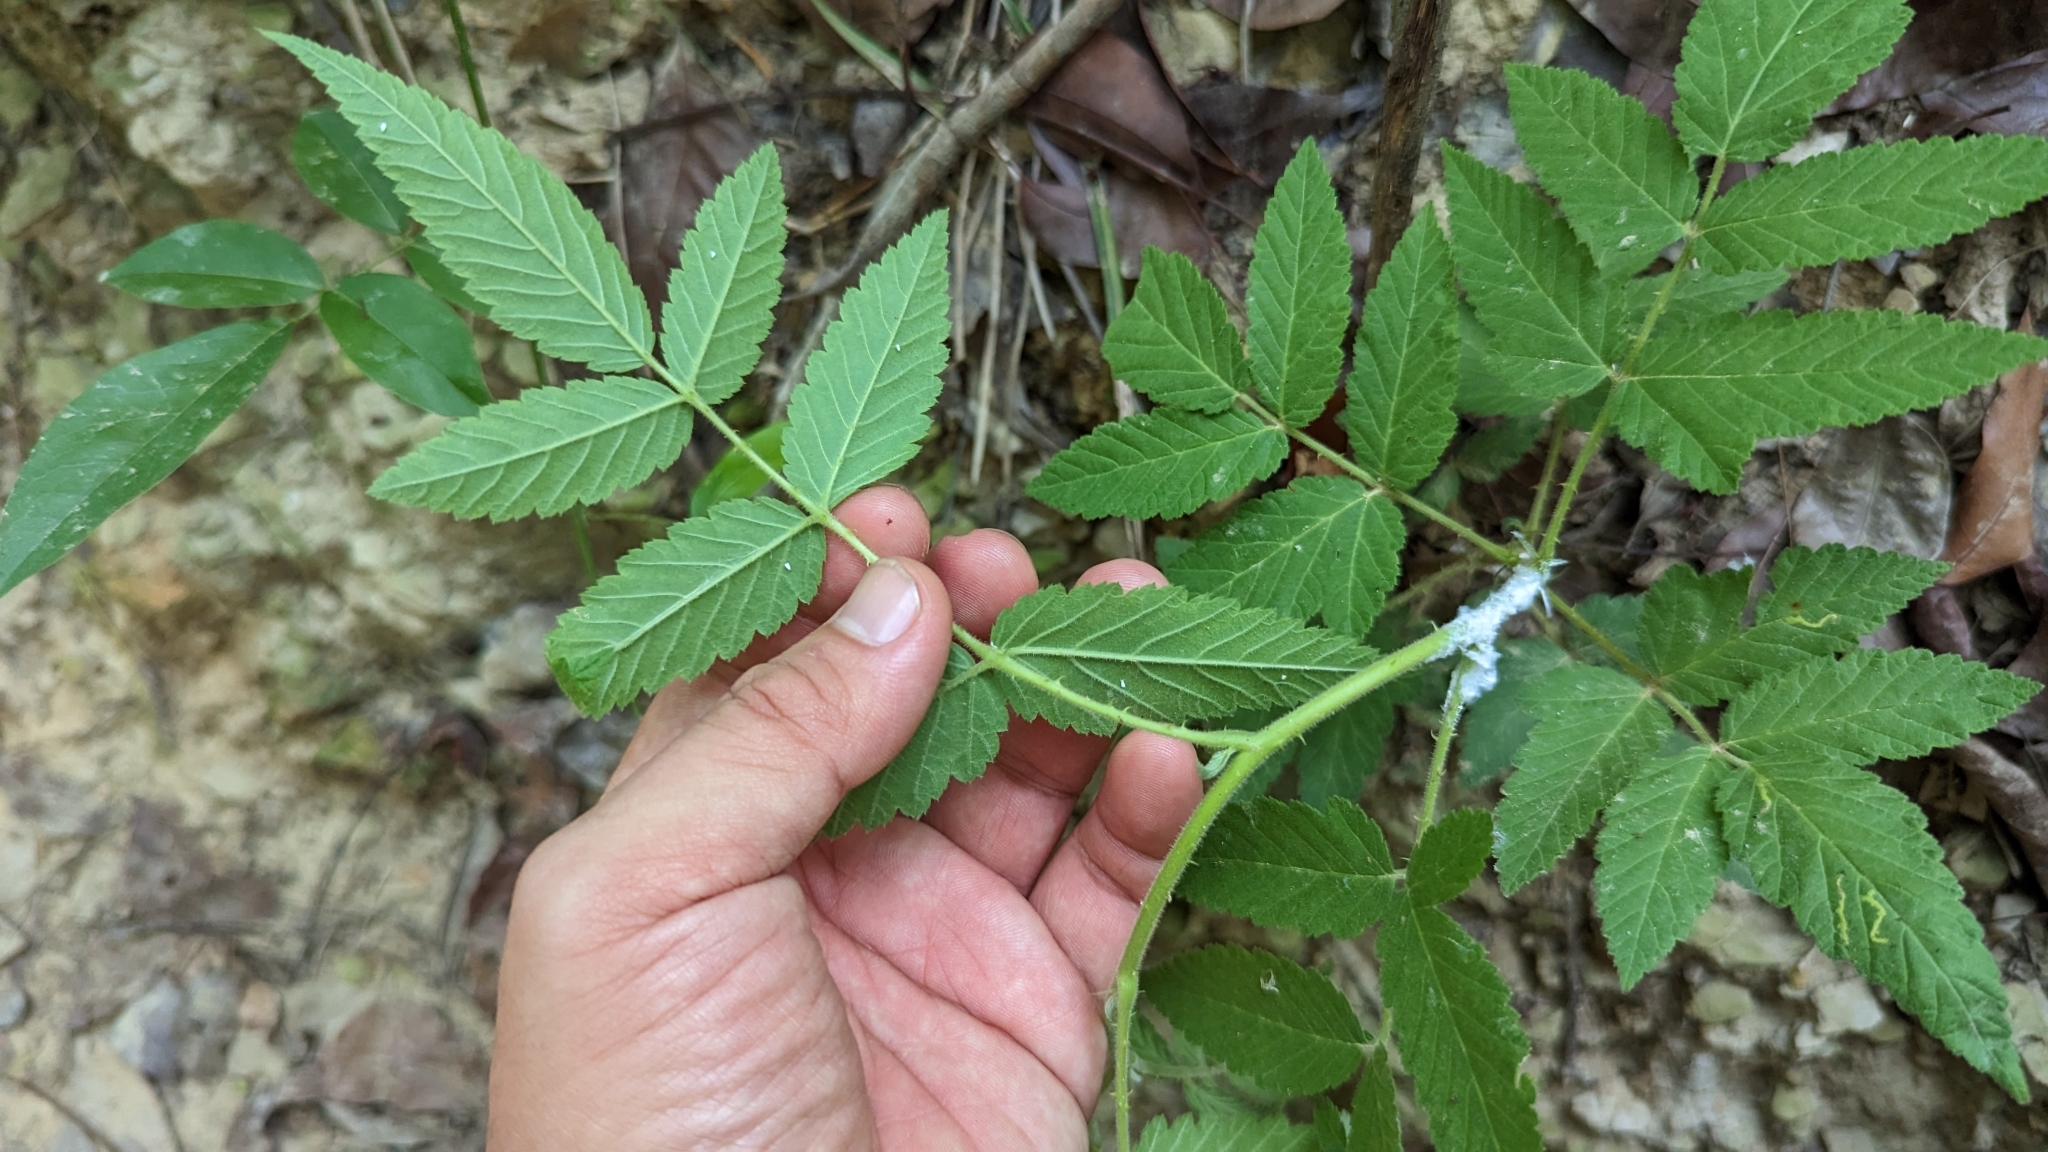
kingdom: Plantae
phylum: Tracheophyta
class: Magnoliopsida
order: Rosales
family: Rosaceae
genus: Rubus
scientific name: Rubus croceacanthus
